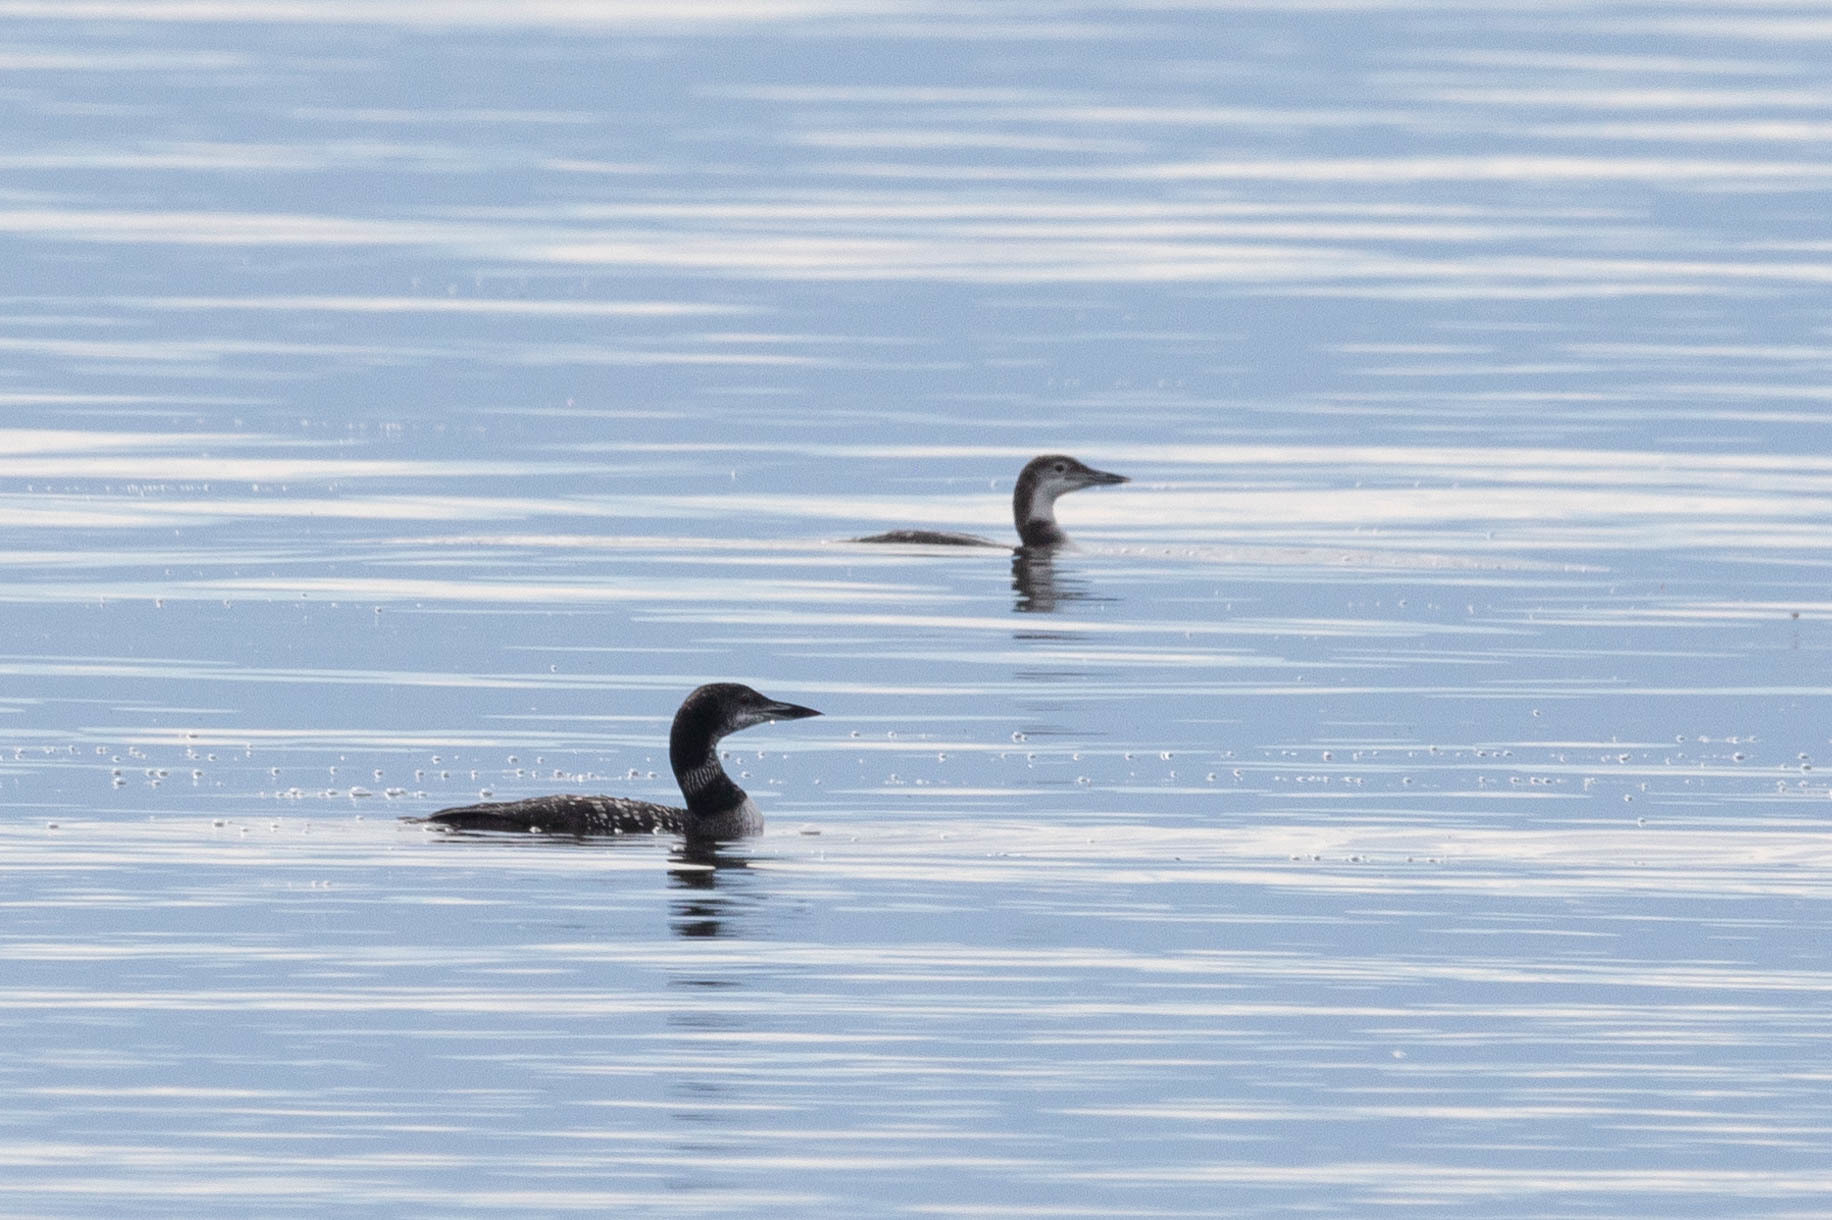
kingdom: Animalia
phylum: Chordata
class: Aves
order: Gaviiformes
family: Gaviidae
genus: Gavia
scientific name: Gavia immer
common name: Common loon
